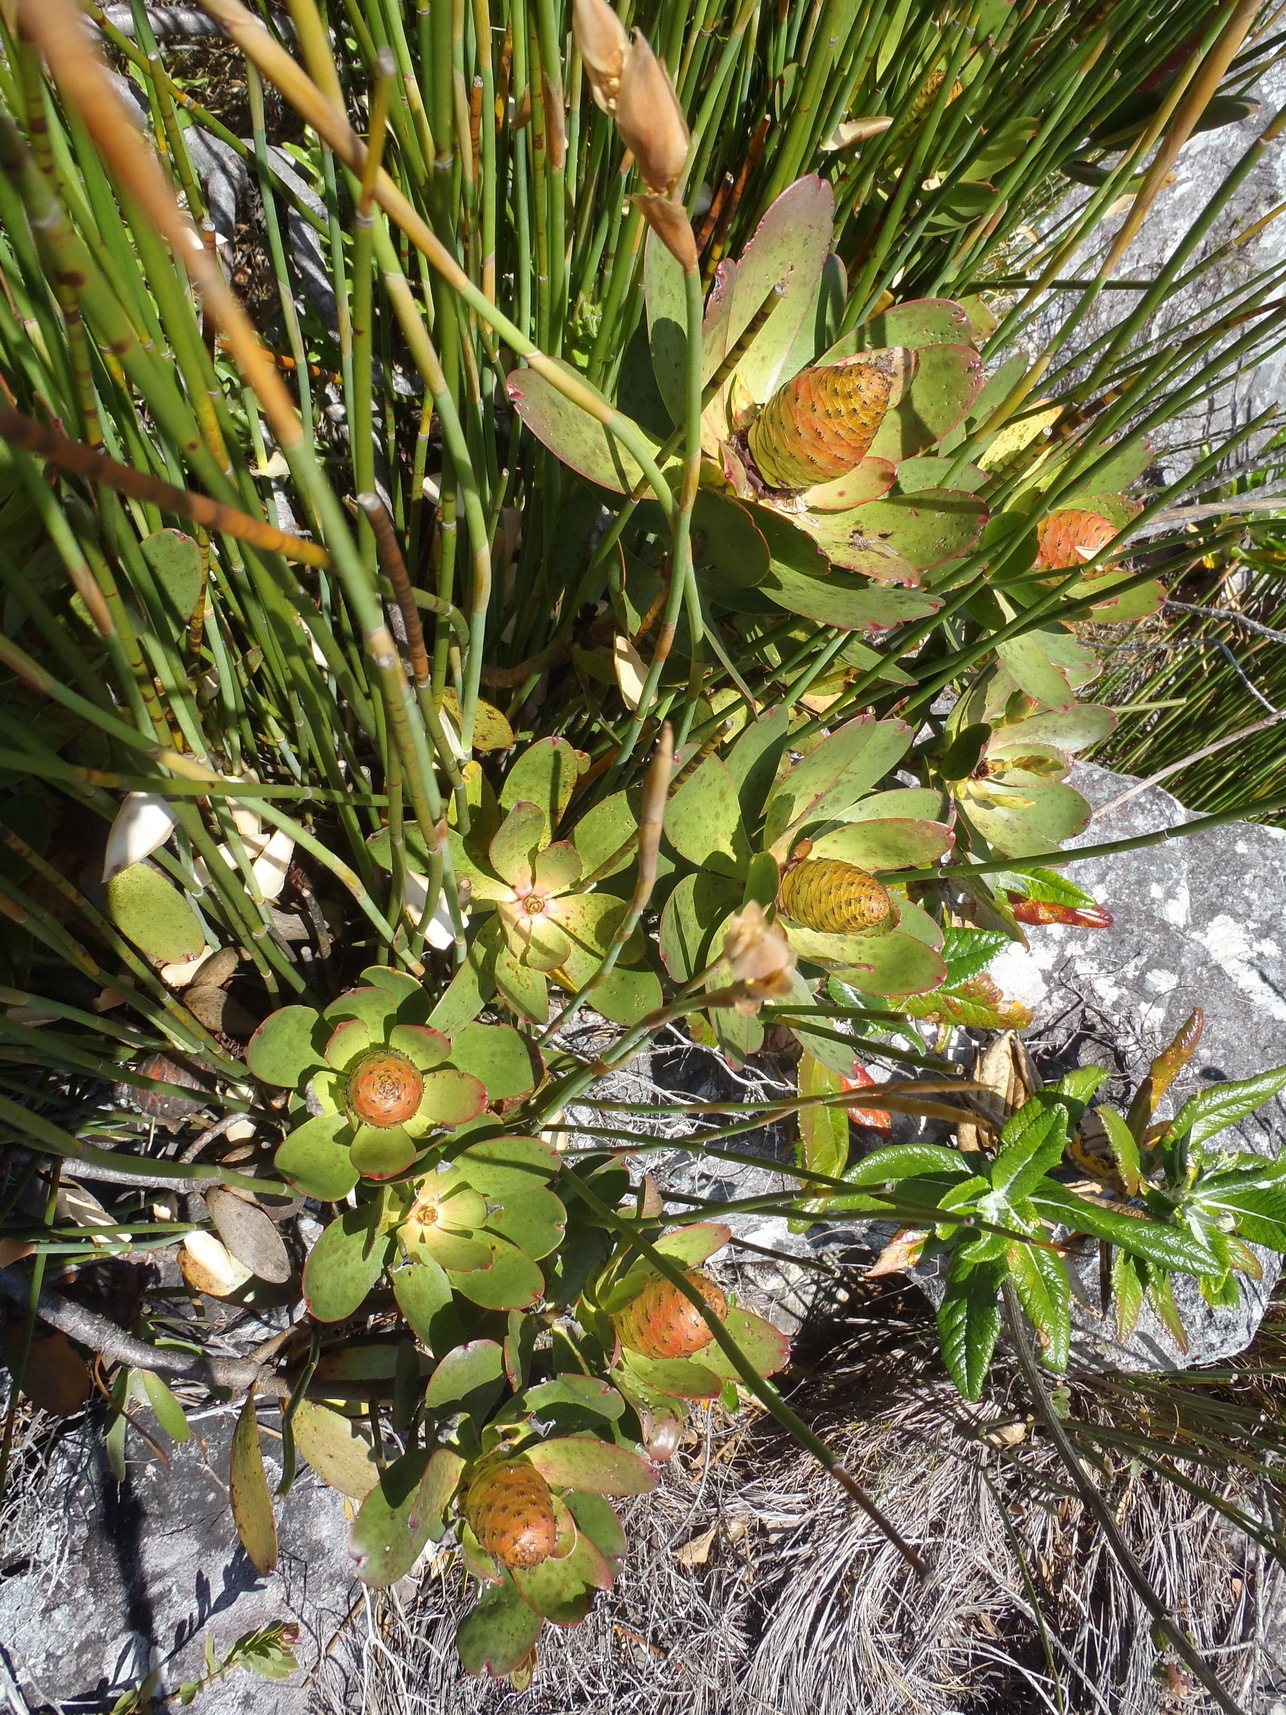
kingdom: Plantae
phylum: Tracheophyta
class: Magnoliopsida
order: Proteales
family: Proteaceae
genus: Leucadendron
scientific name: Leucadendron gandogeri
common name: Broad-leaf conebush
